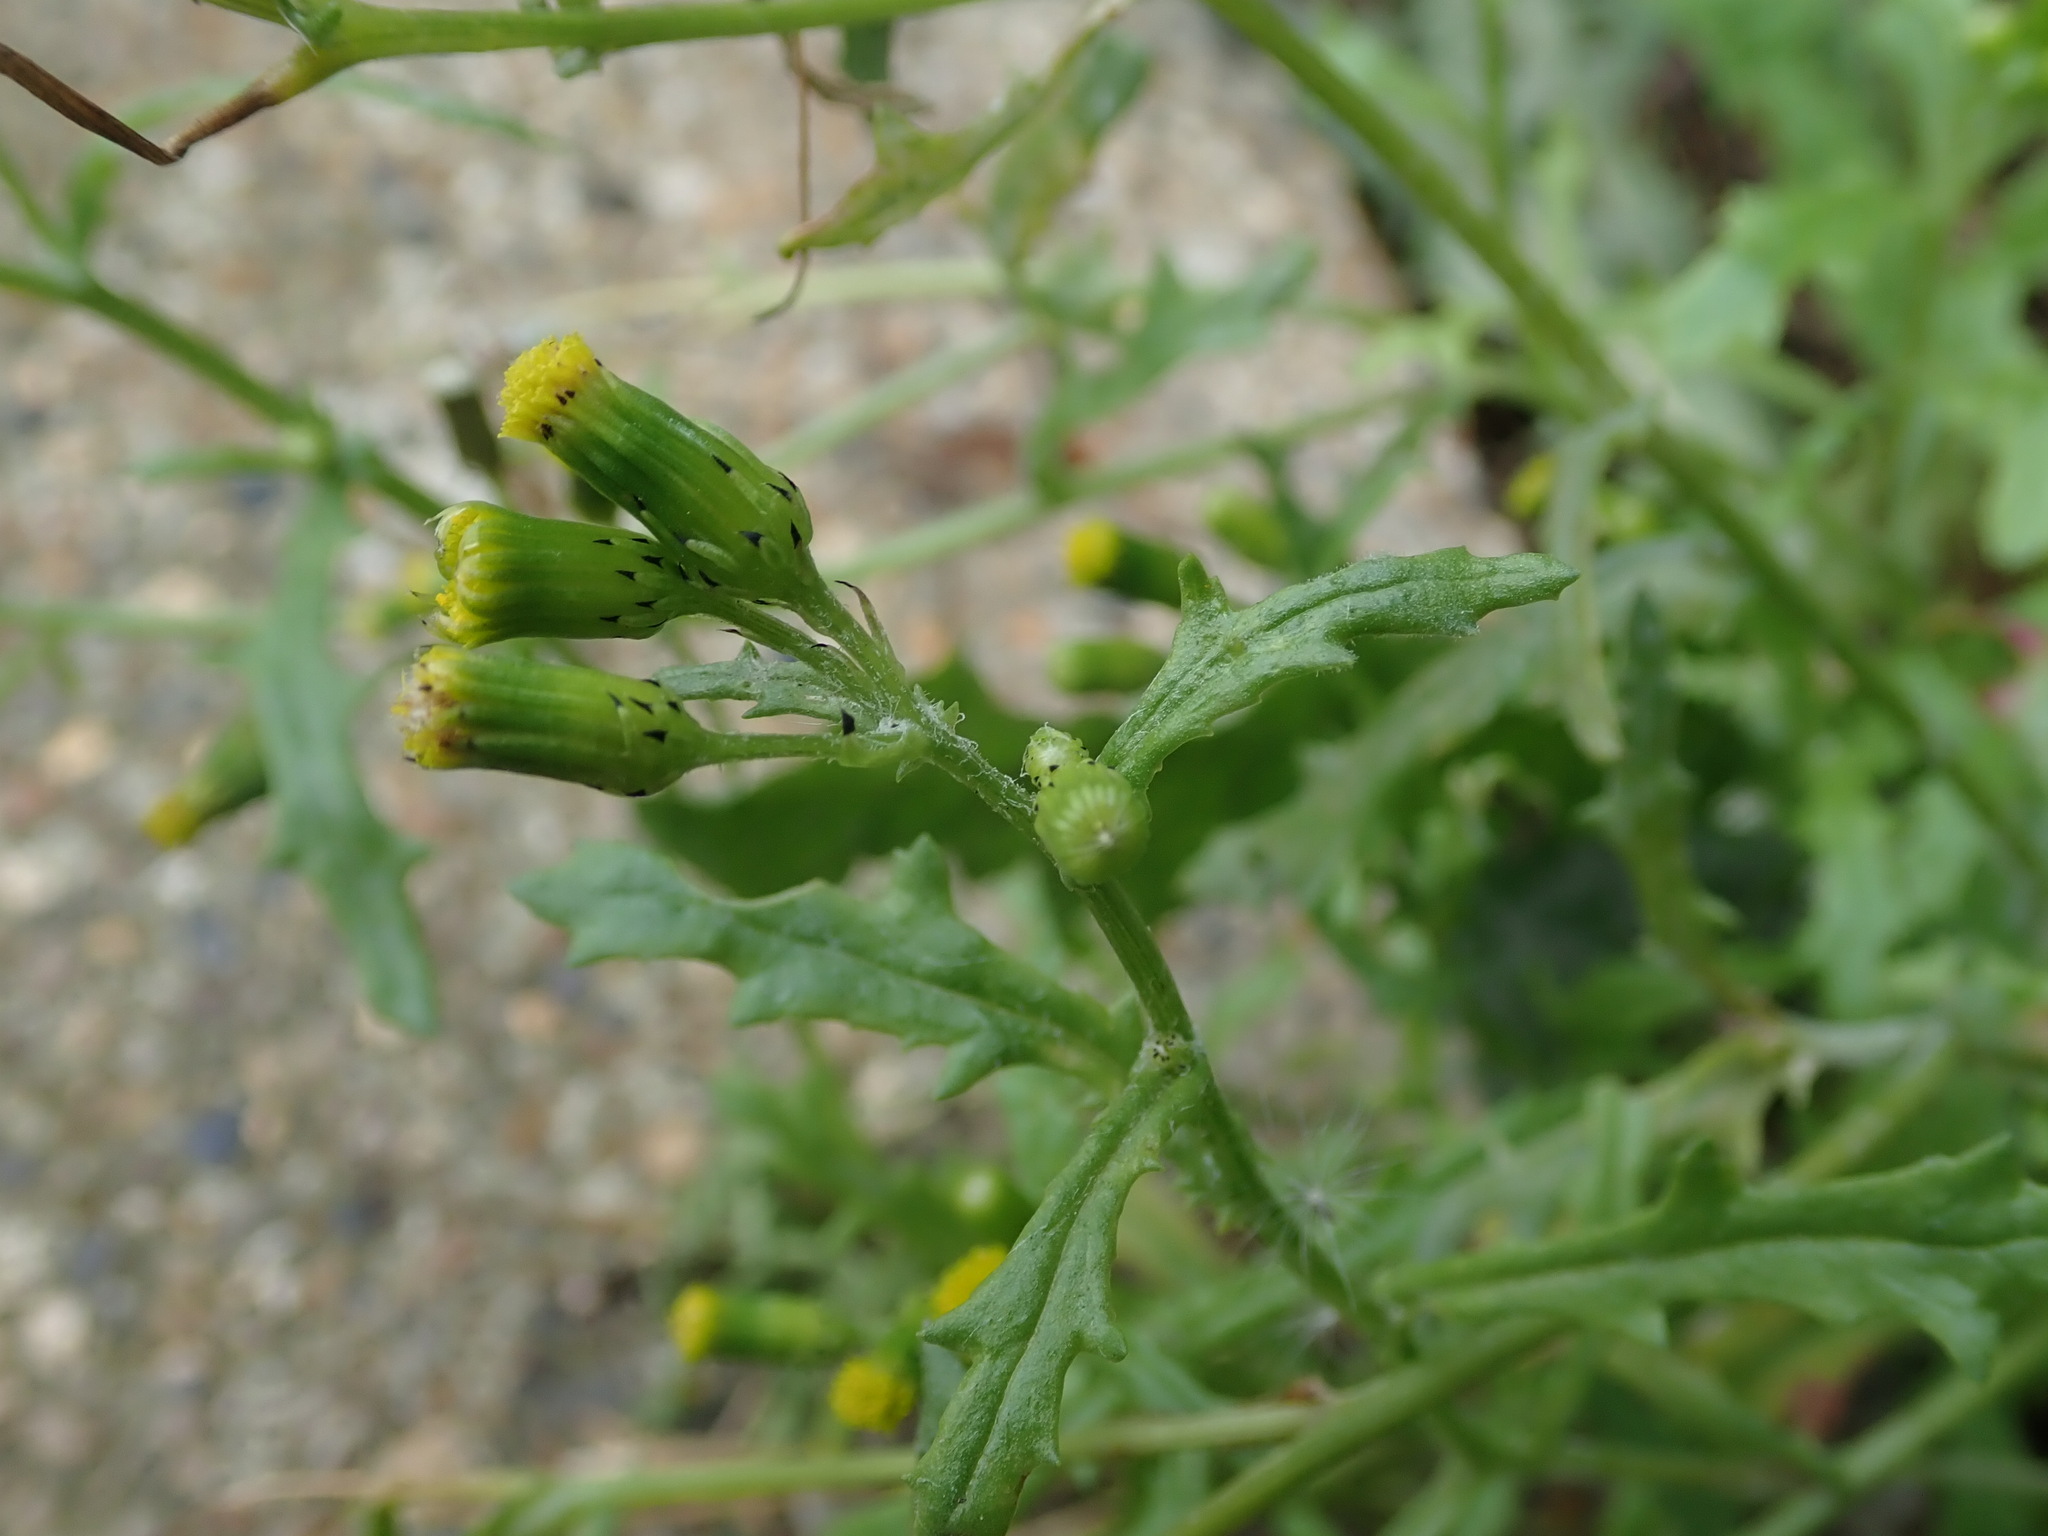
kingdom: Plantae
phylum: Tracheophyta
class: Magnoliopsida
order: Asterales
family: Asteraceae
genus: Senecio
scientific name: Senecio vulgaris
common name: Old-man-in-the-spring
